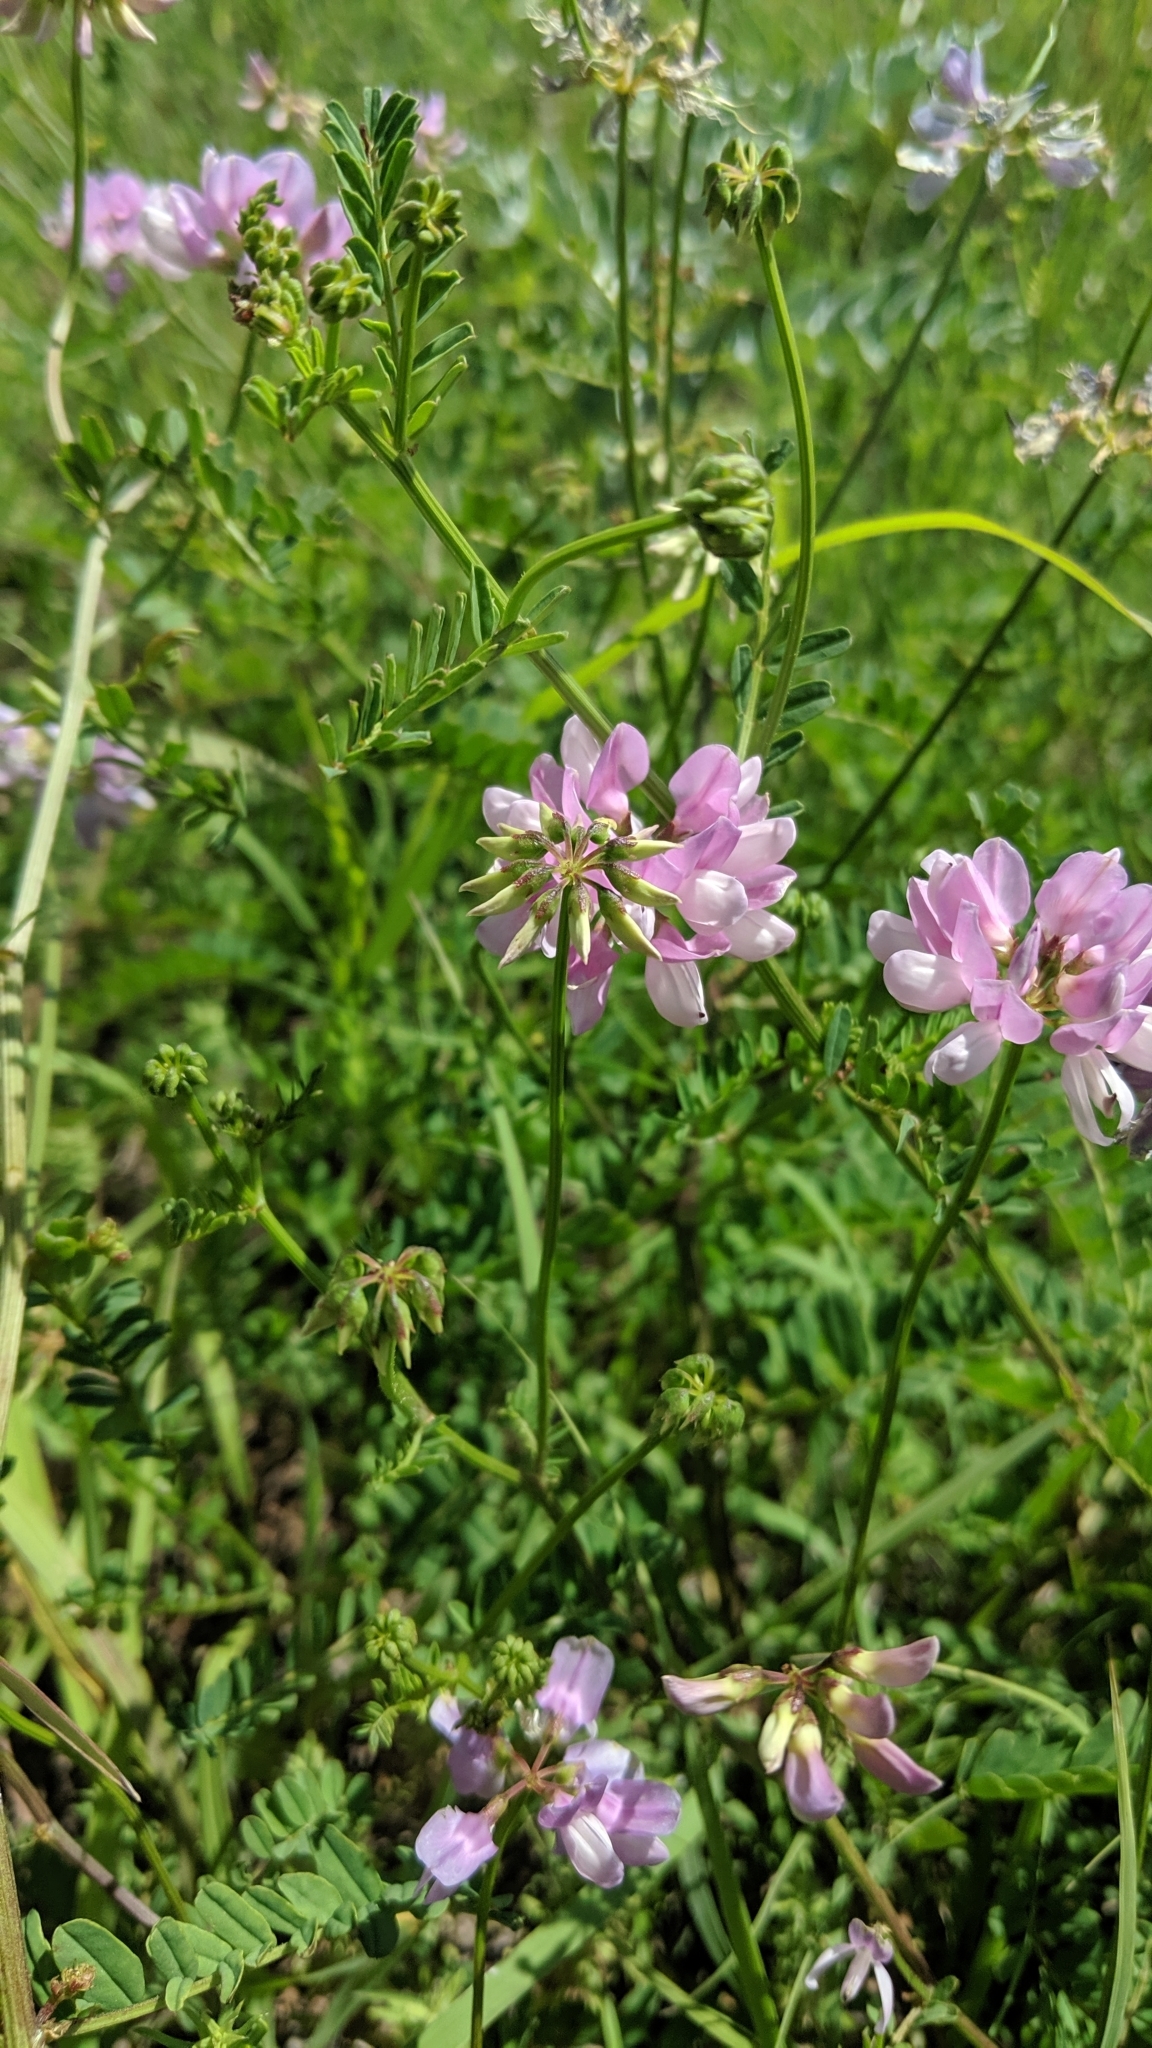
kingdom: Plantae
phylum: Tracheophyta
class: Magnoliopsida
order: Fabales
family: Fabaceae
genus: Coronilla
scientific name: Coronilla varia
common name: Crownvetch
